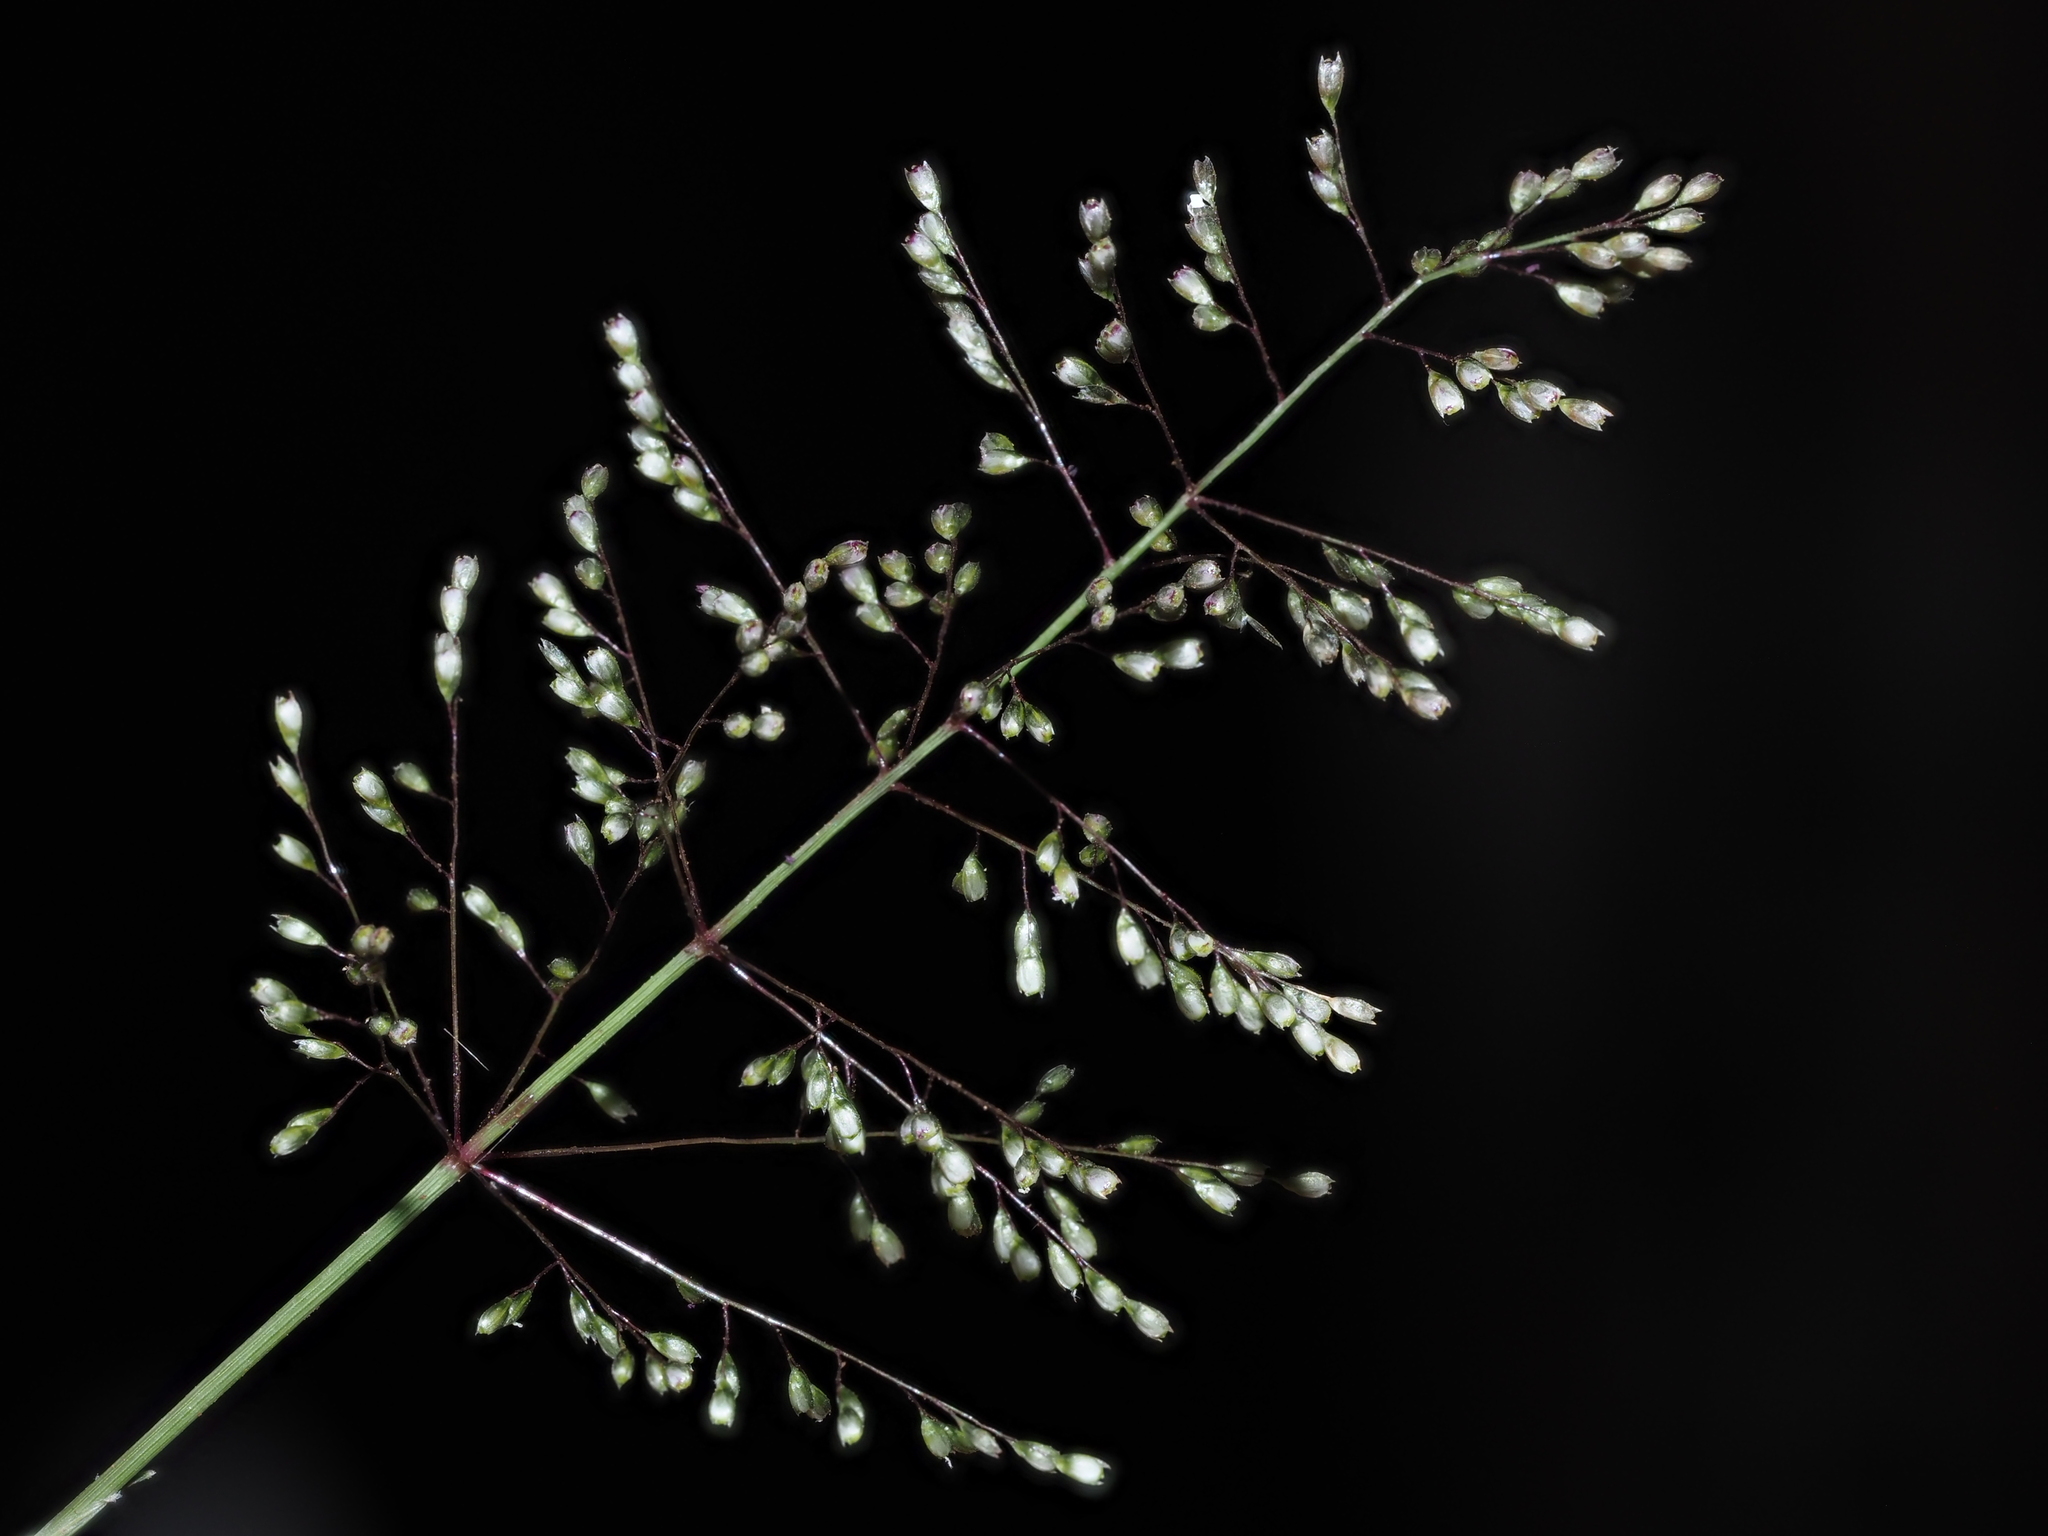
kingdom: Plantae
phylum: Tracheophyta
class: Liliopsida
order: Poales
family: Poaceae
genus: Sporobolus
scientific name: Sporobolus coromandelianus
